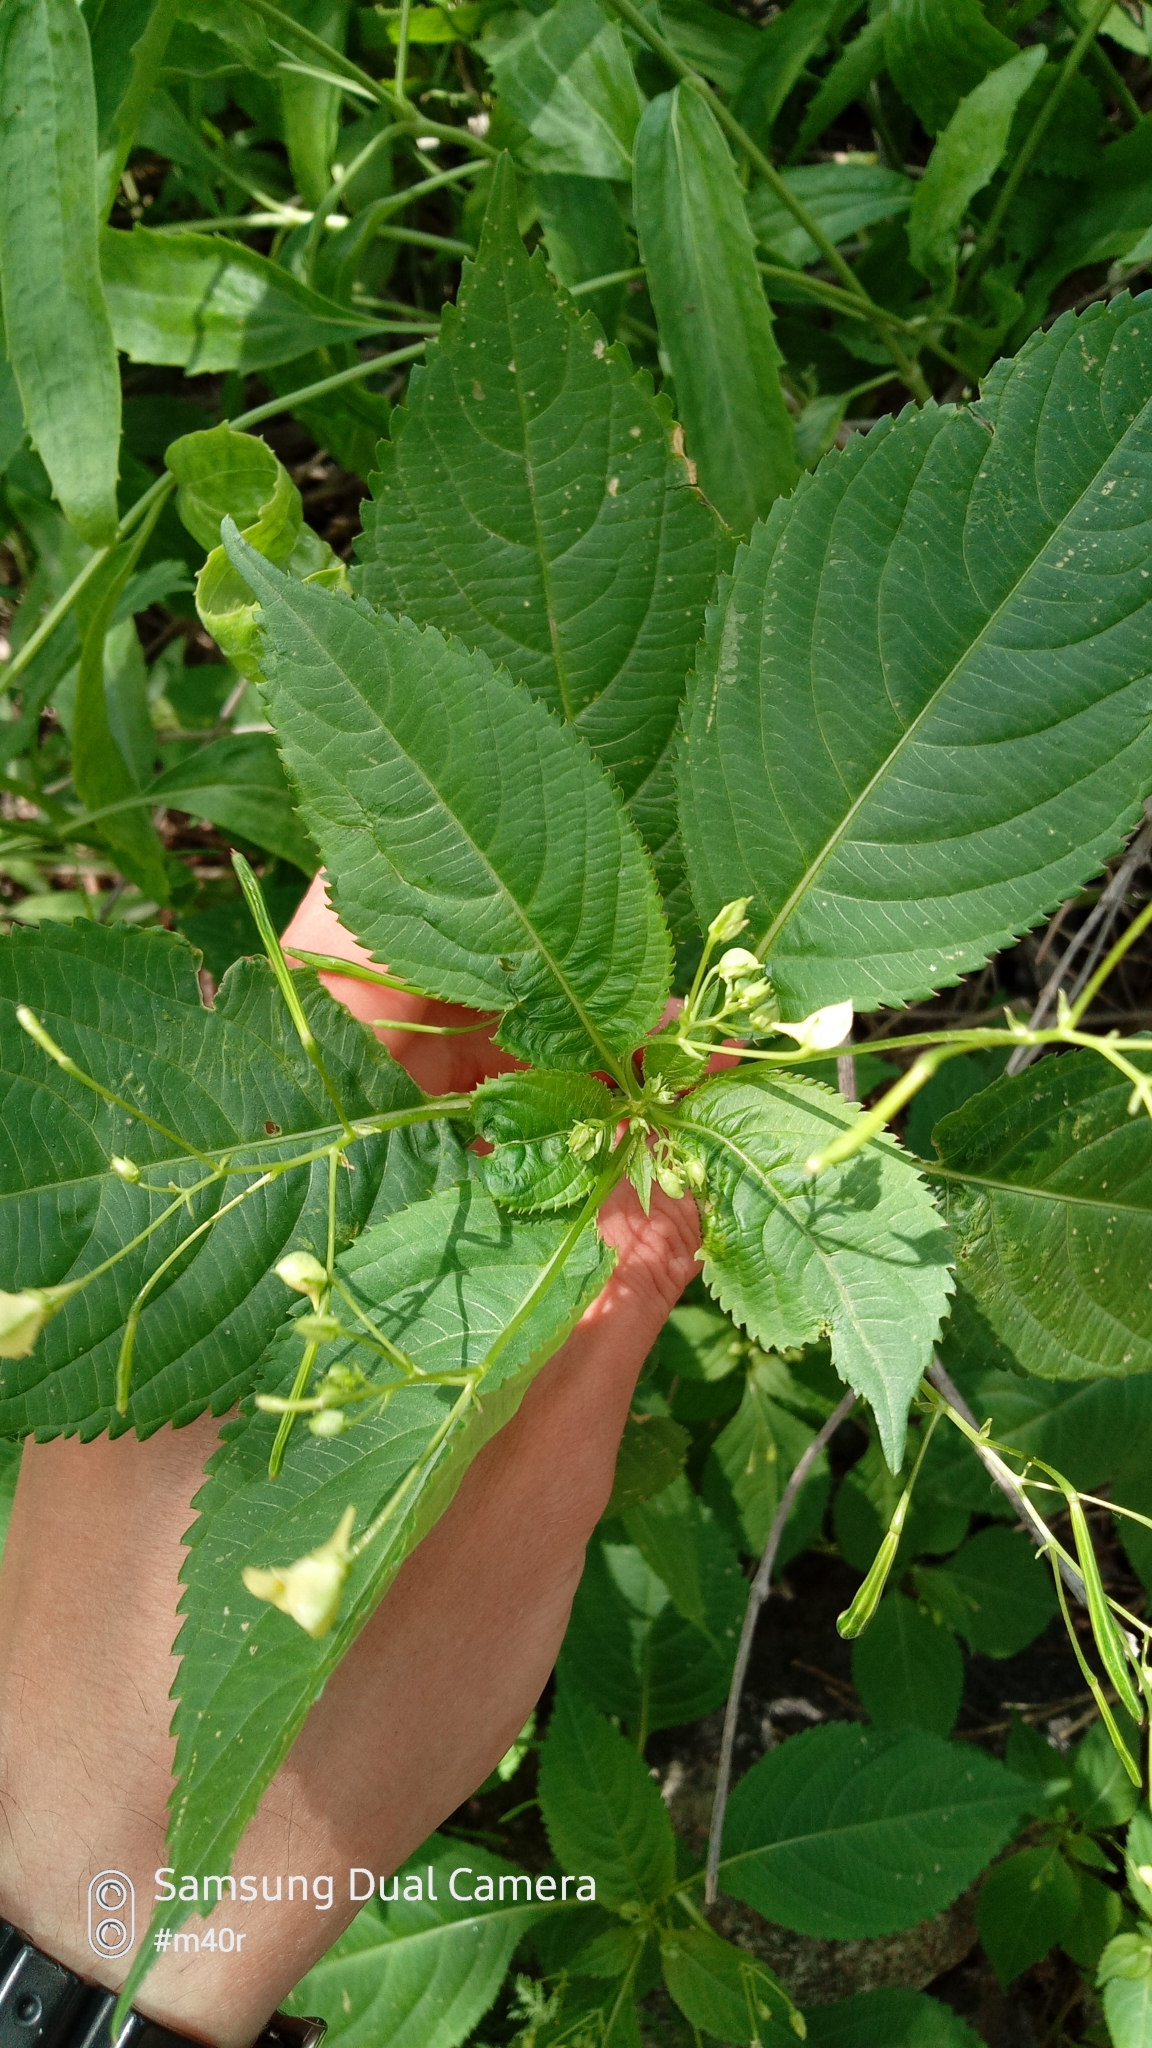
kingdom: Plantae
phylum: Tracheophyta
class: Magnoliopsida
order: Ericales
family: Balsaminaceae
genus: Impatiens
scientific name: Impatiens parviflora
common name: Small balsam
